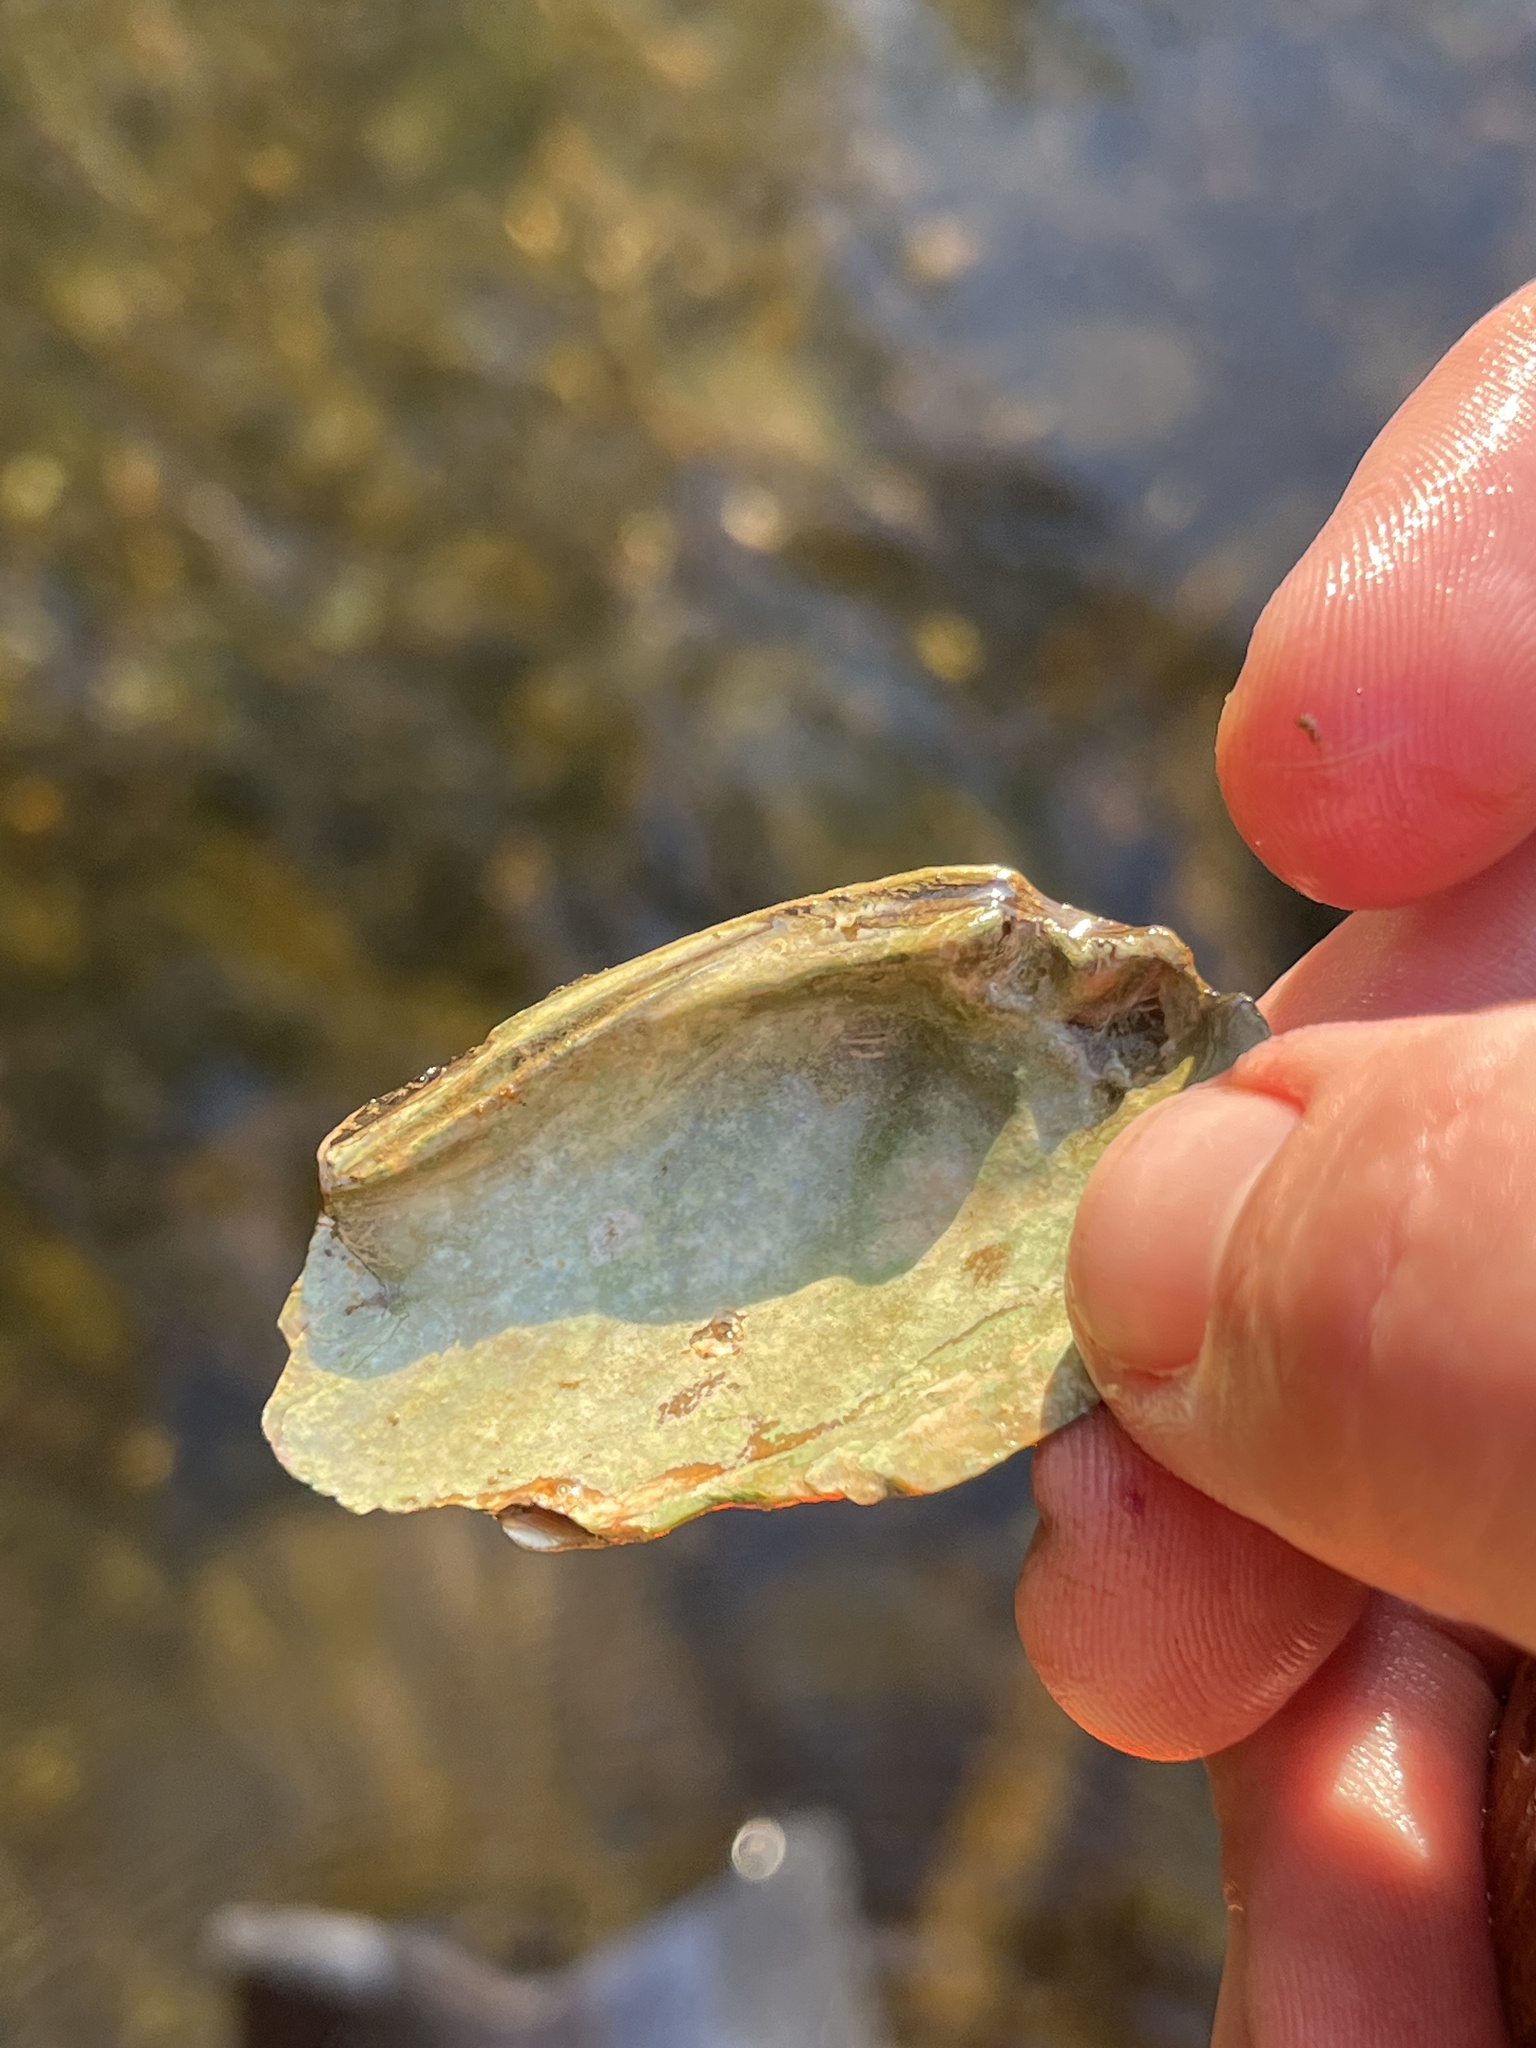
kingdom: Animalia
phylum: Mollusca
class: Bivalvia
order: Unionida
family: Unionidae
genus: Eurynia
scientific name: Eurynia dilatata
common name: Spike
